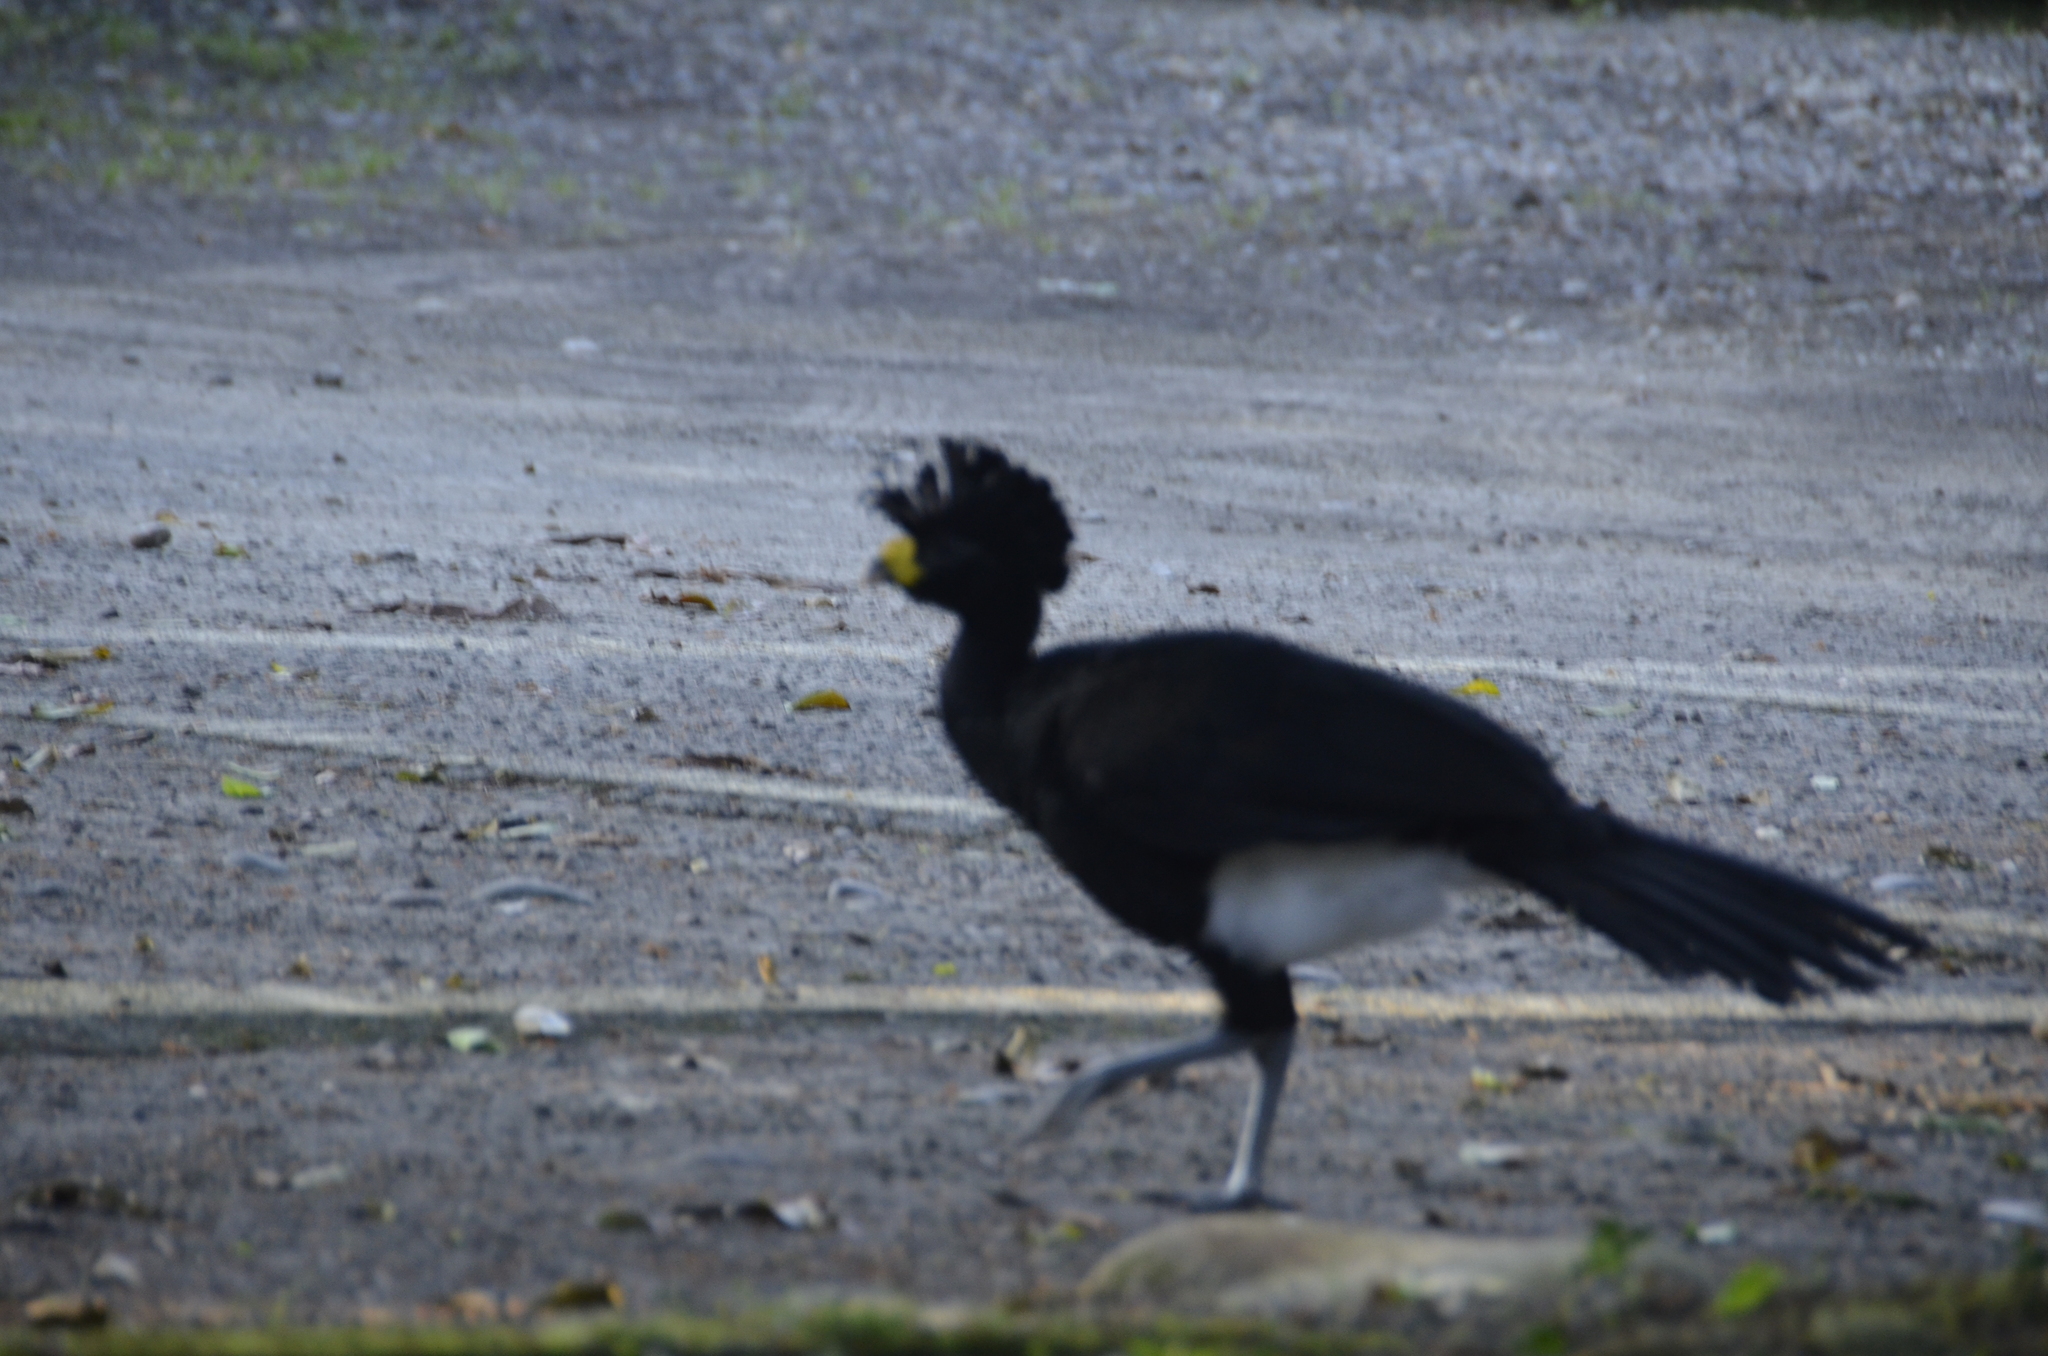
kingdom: Animalia
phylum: Chordata
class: Aves
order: Galliformes
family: Cracidae
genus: Crax
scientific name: Crax rubra
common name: Great curassow
